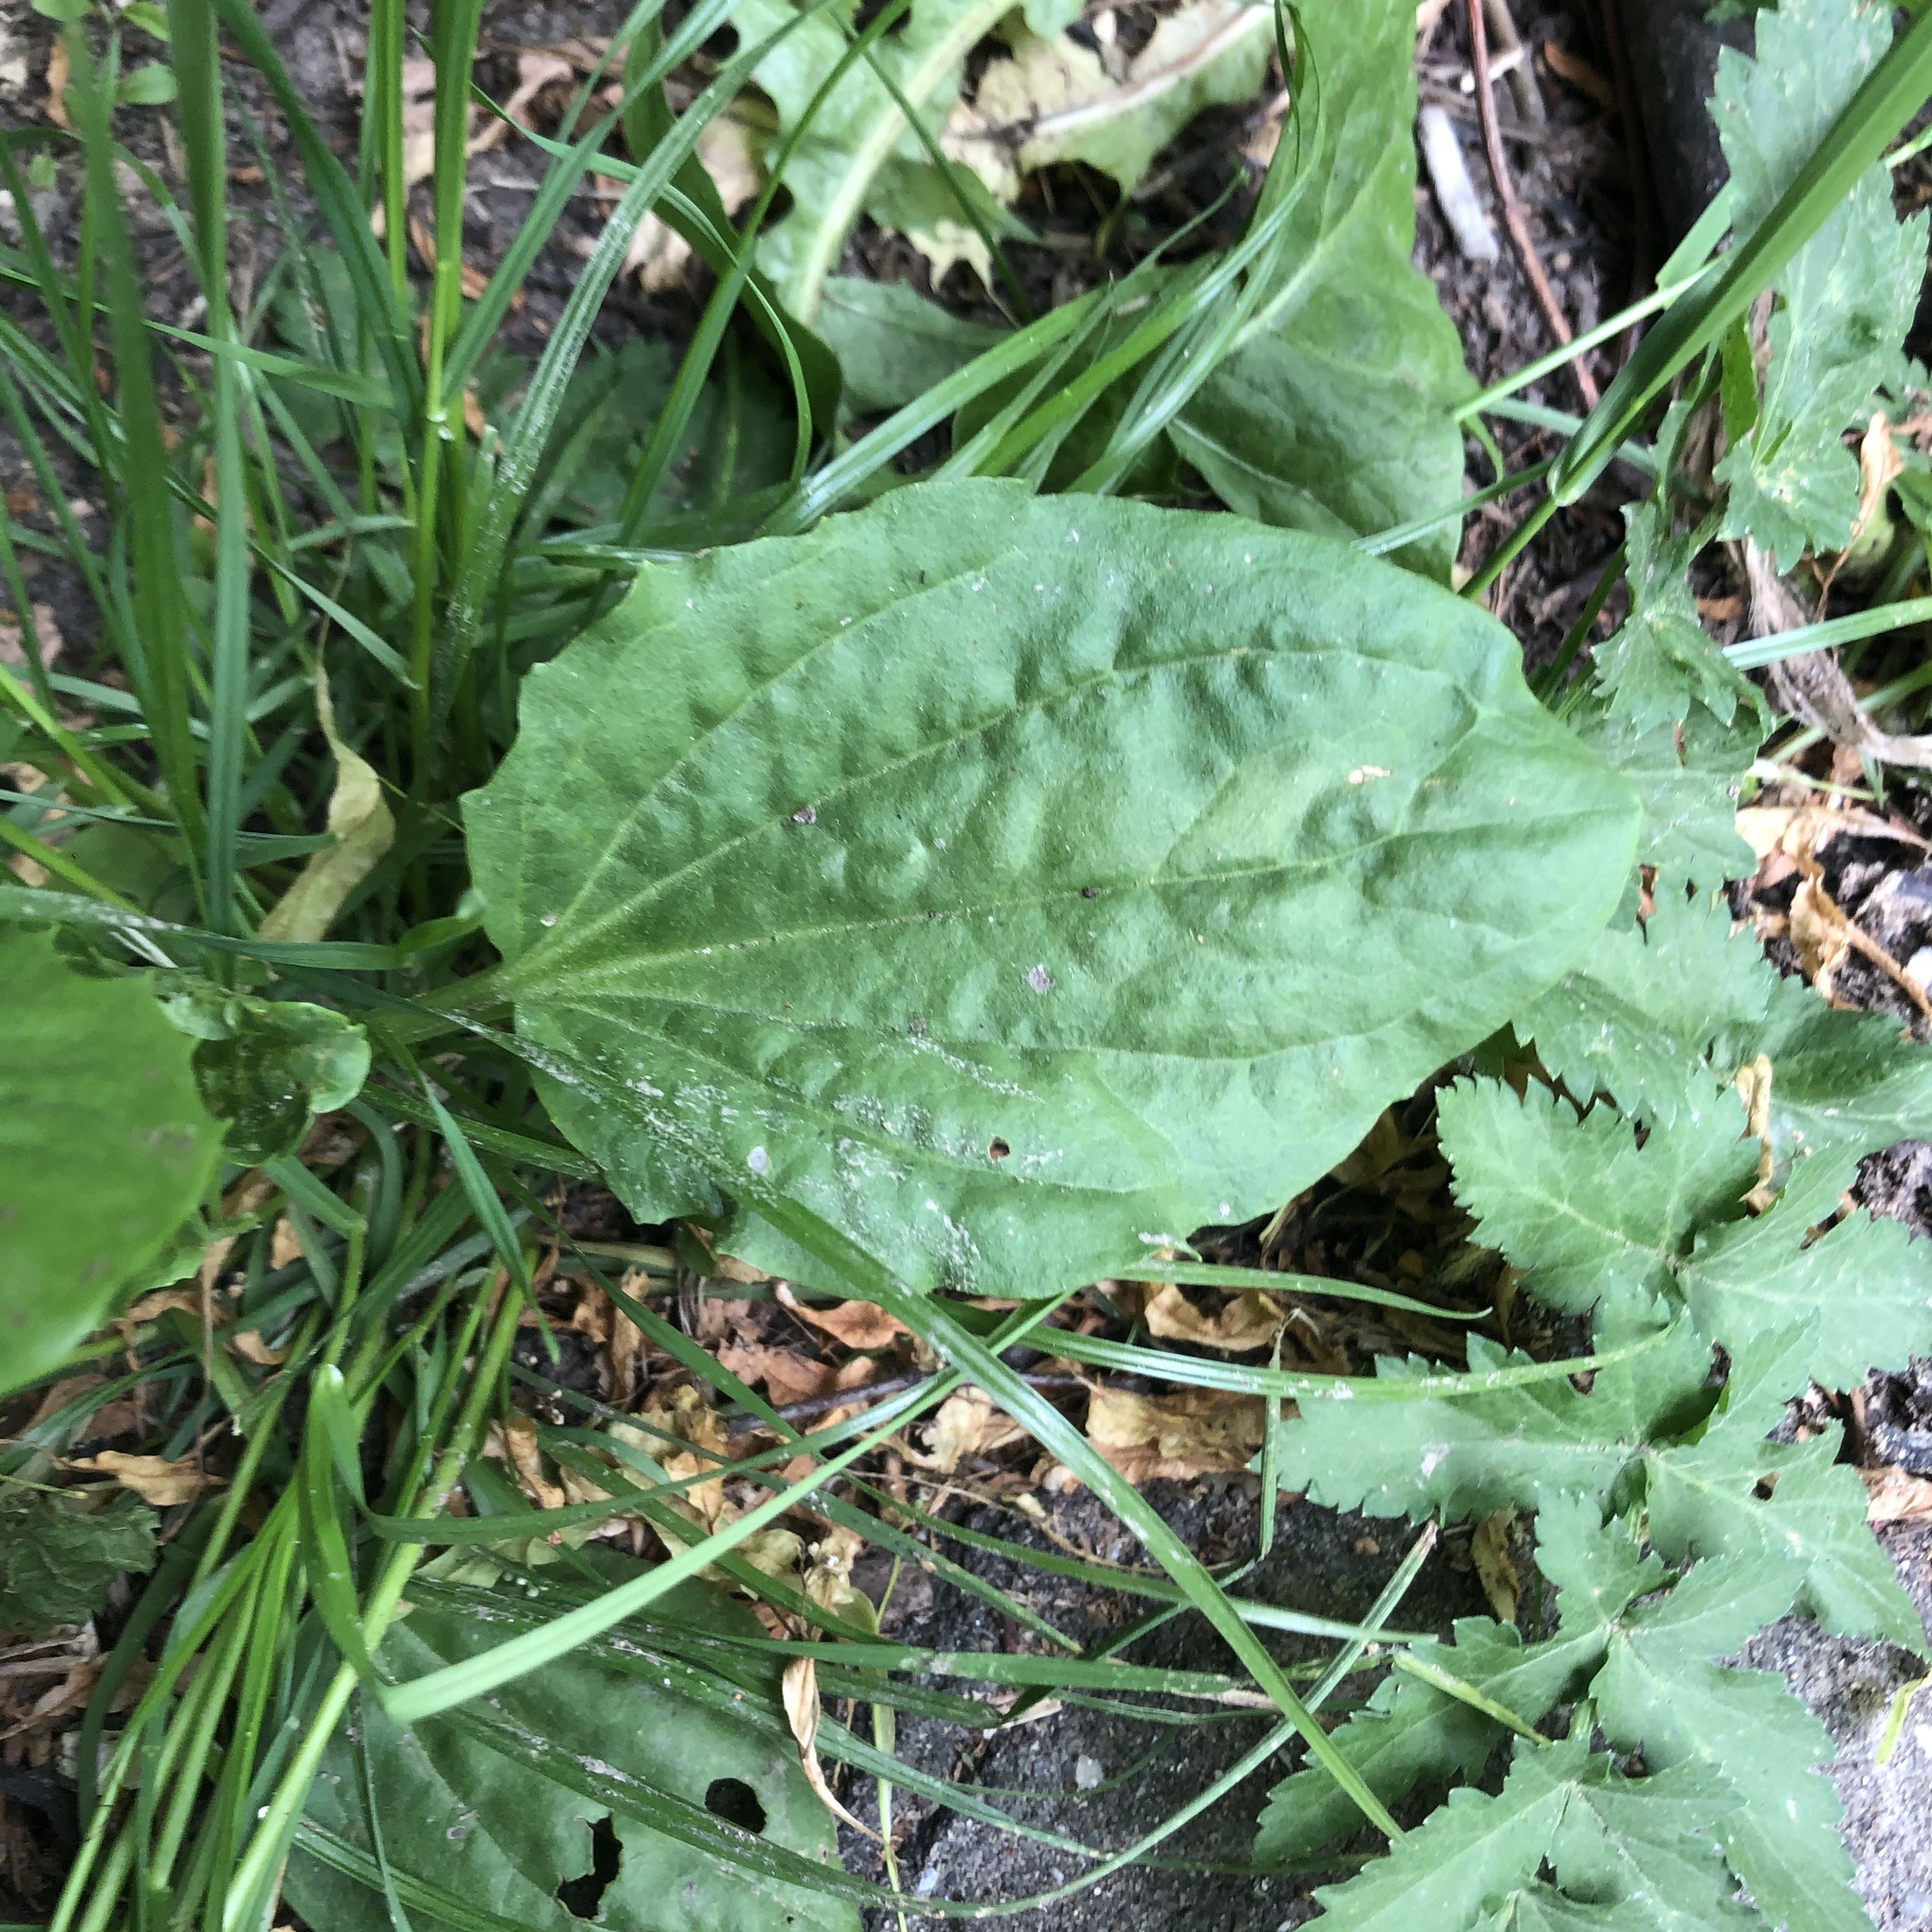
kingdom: Plantae
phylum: Tracheophyta
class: Magnoliopsida
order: Lamiales
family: Plantaginaceae
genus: Plantago
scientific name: Plantago major
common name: Common plantain
